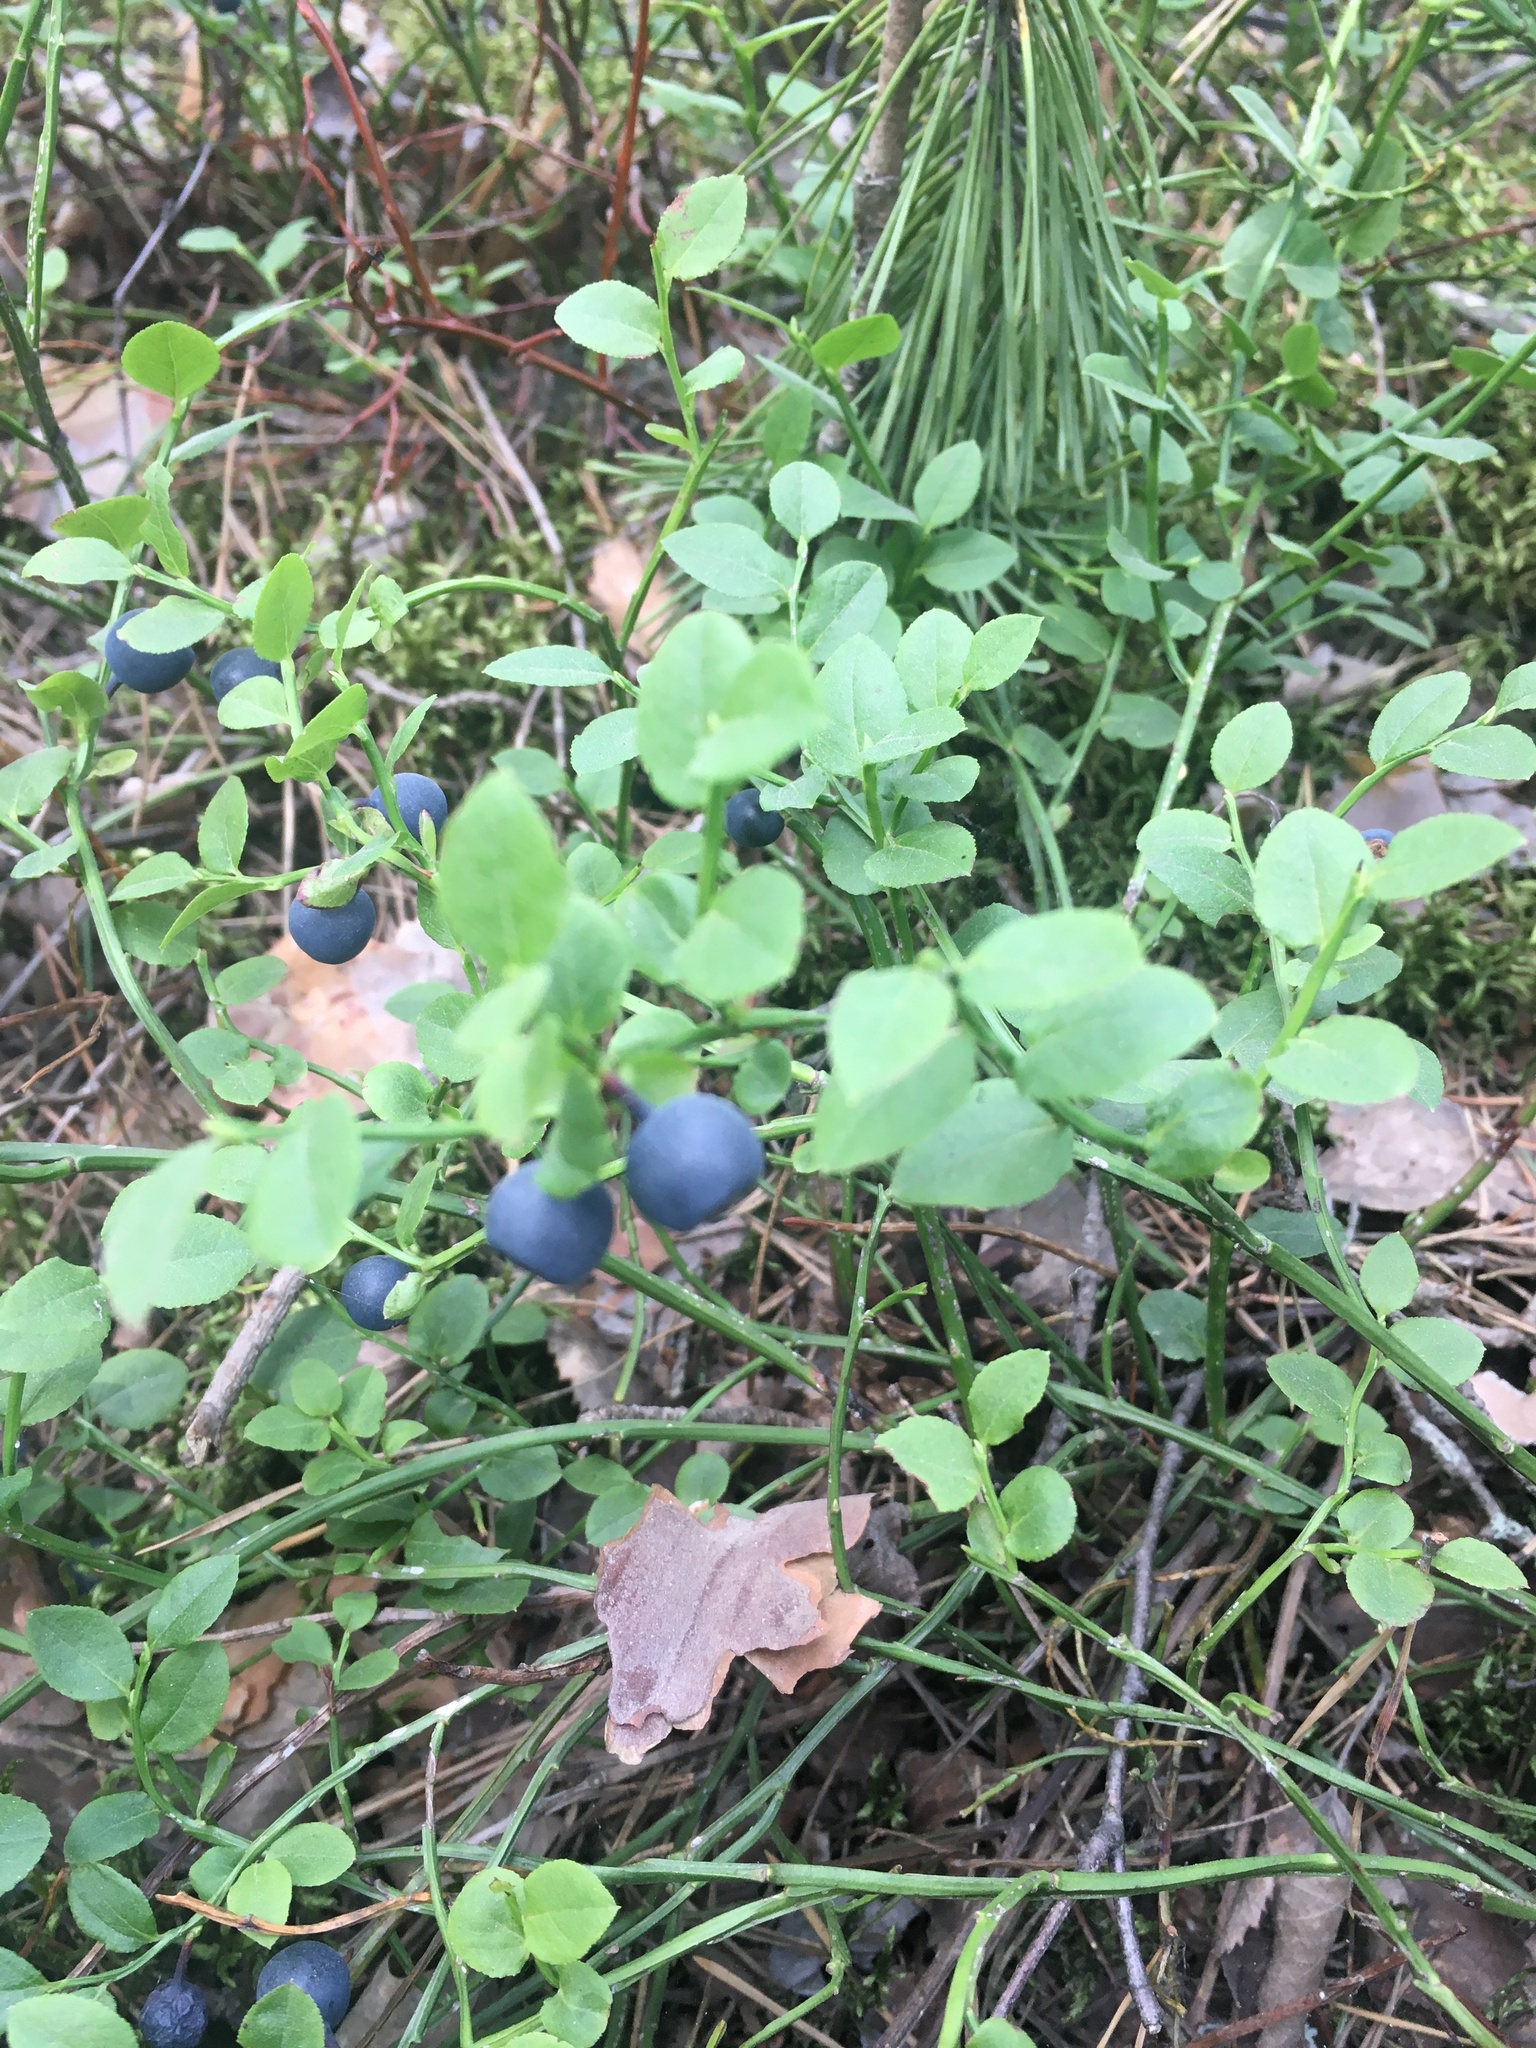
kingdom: Plantae
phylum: Tracheophyta
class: Magnoliopsida
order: Ericales
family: Ericaceae
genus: Vaccinium
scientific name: Vaccinium myrtillus
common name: Bilberry
